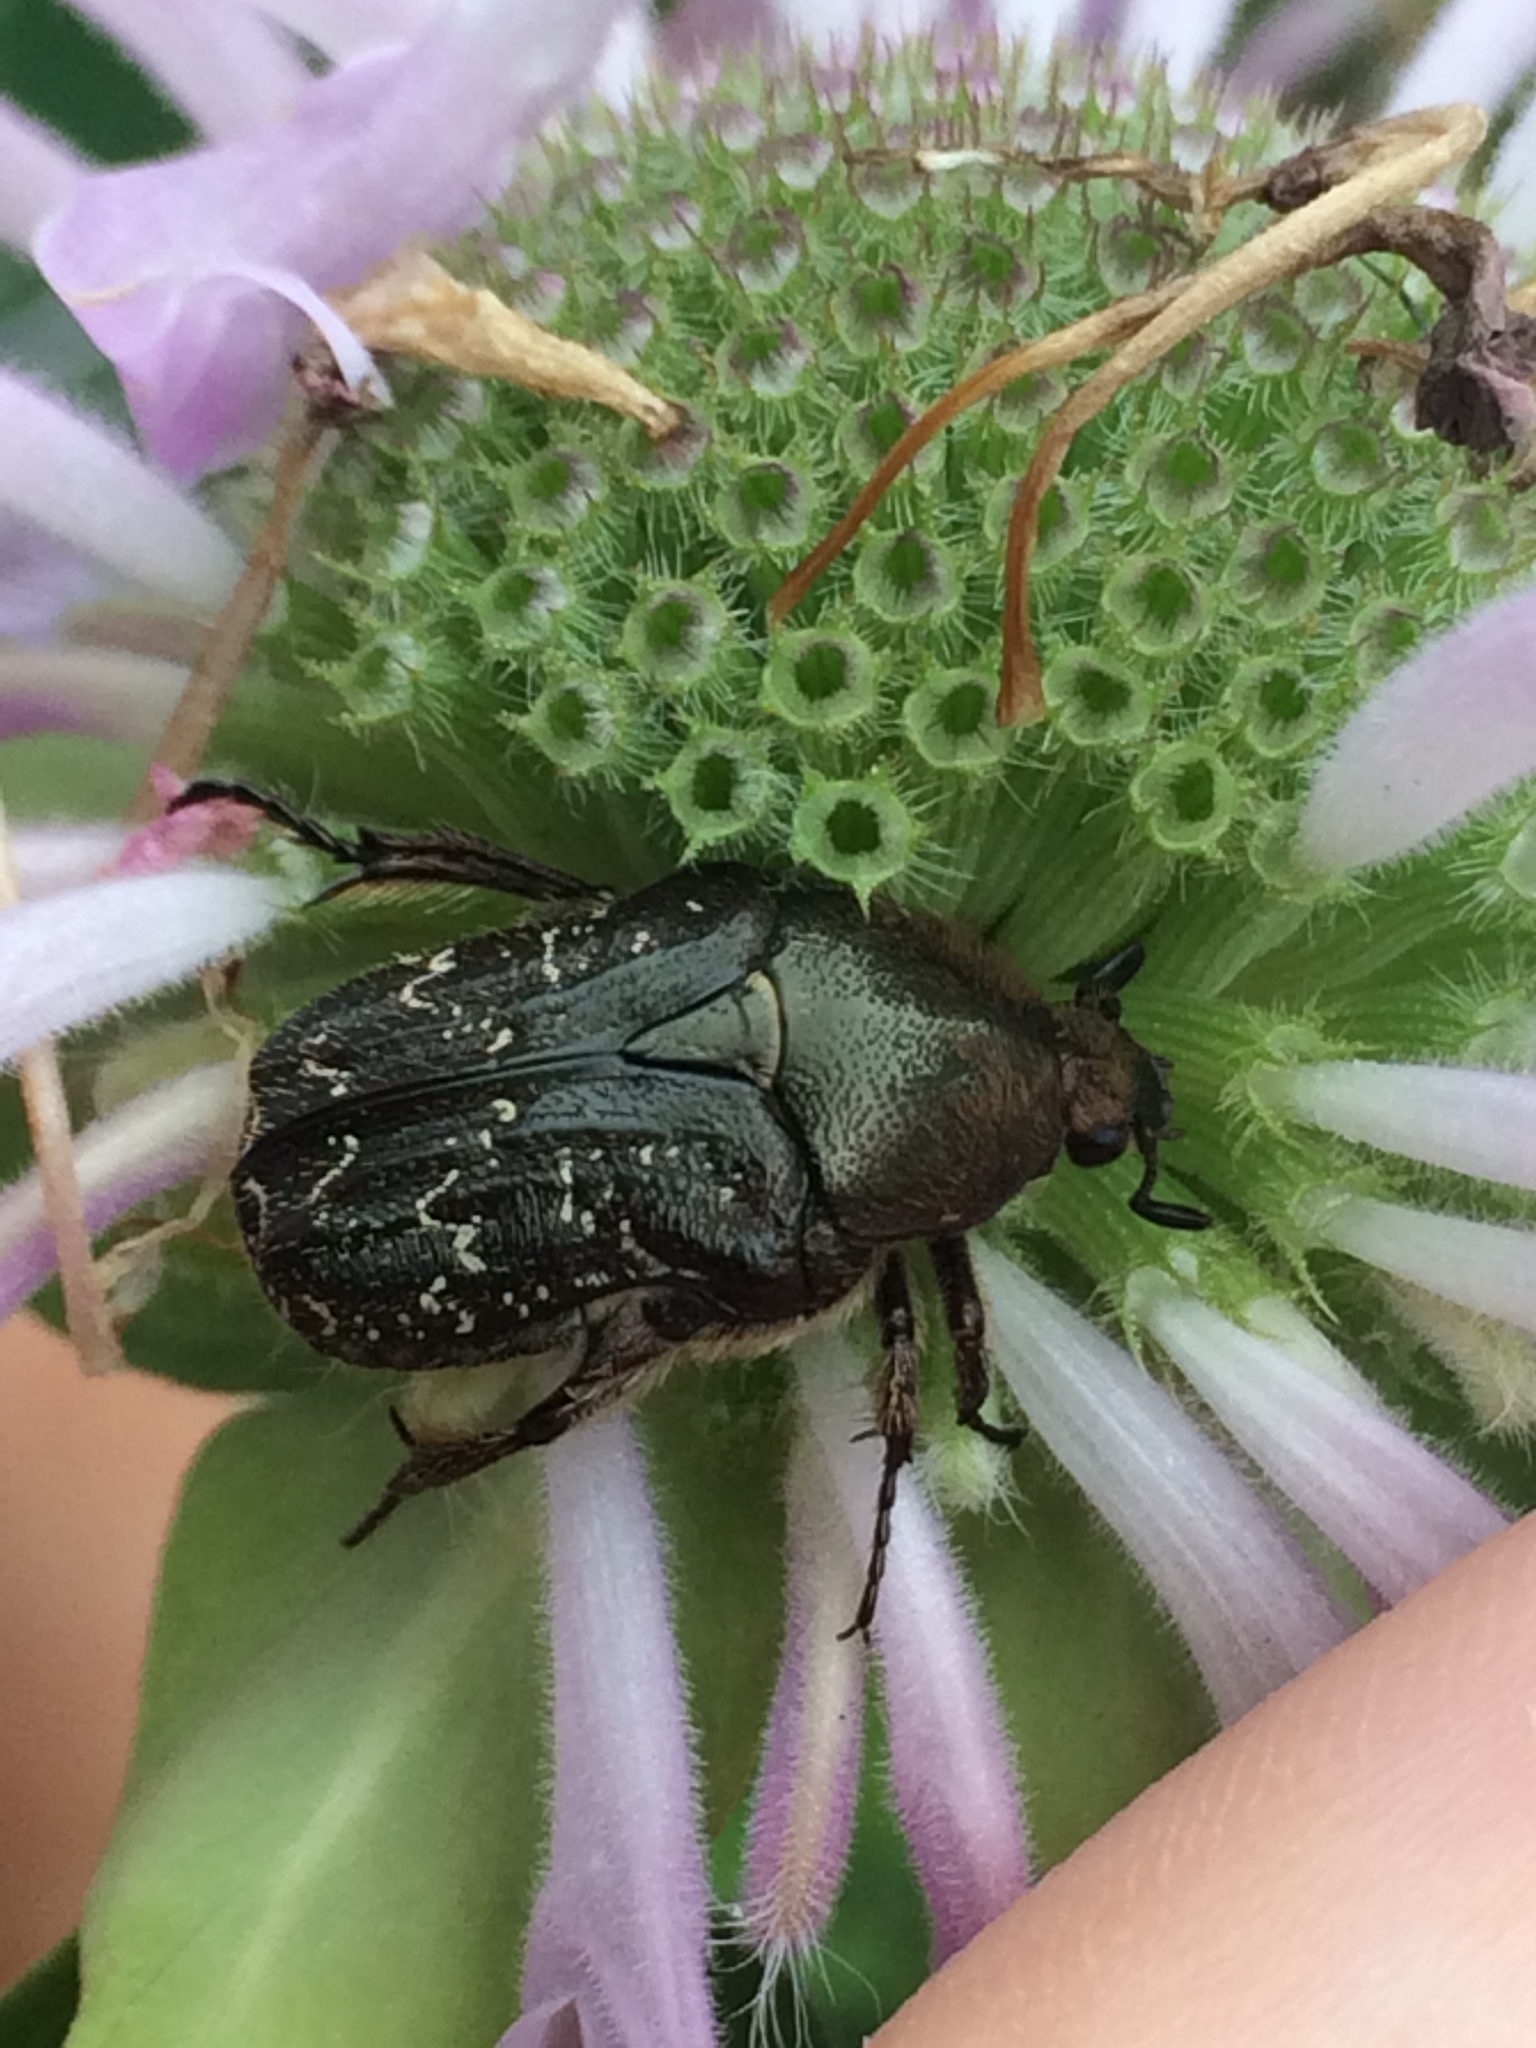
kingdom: Animalia
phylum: Arthropoda
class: Insecta
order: Coleoptera
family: Scarabaeidae
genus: Euphoria
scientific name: Euphoria sepulcralis
